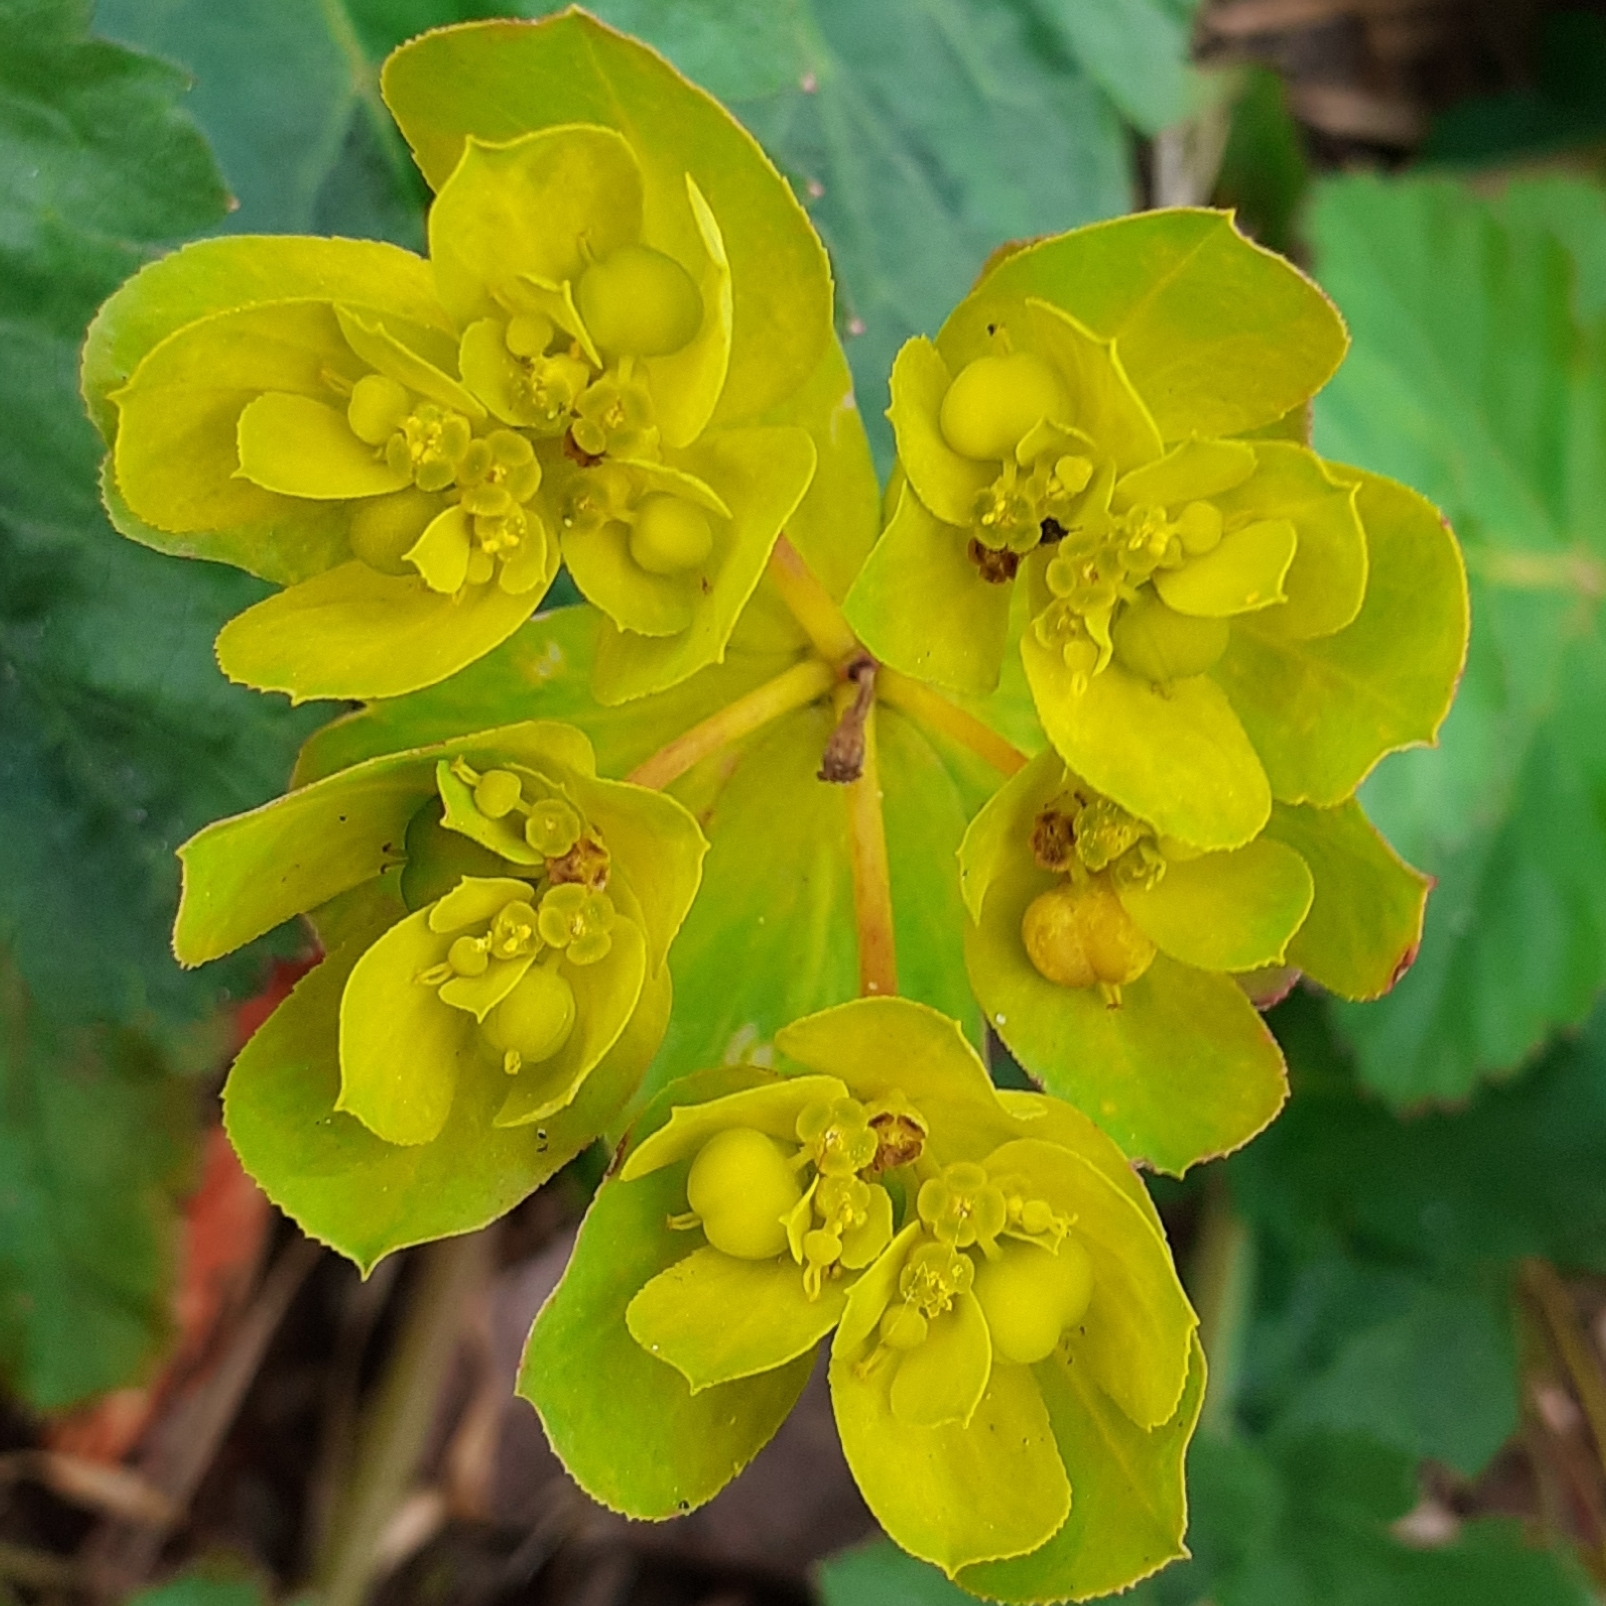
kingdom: Plantae
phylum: Tracheophyta
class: Magnoliopsida
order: Malpighiales
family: Euphorbiaceae
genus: Euphorbia
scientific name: Euphorbia helioscopia
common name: Sun spurge
